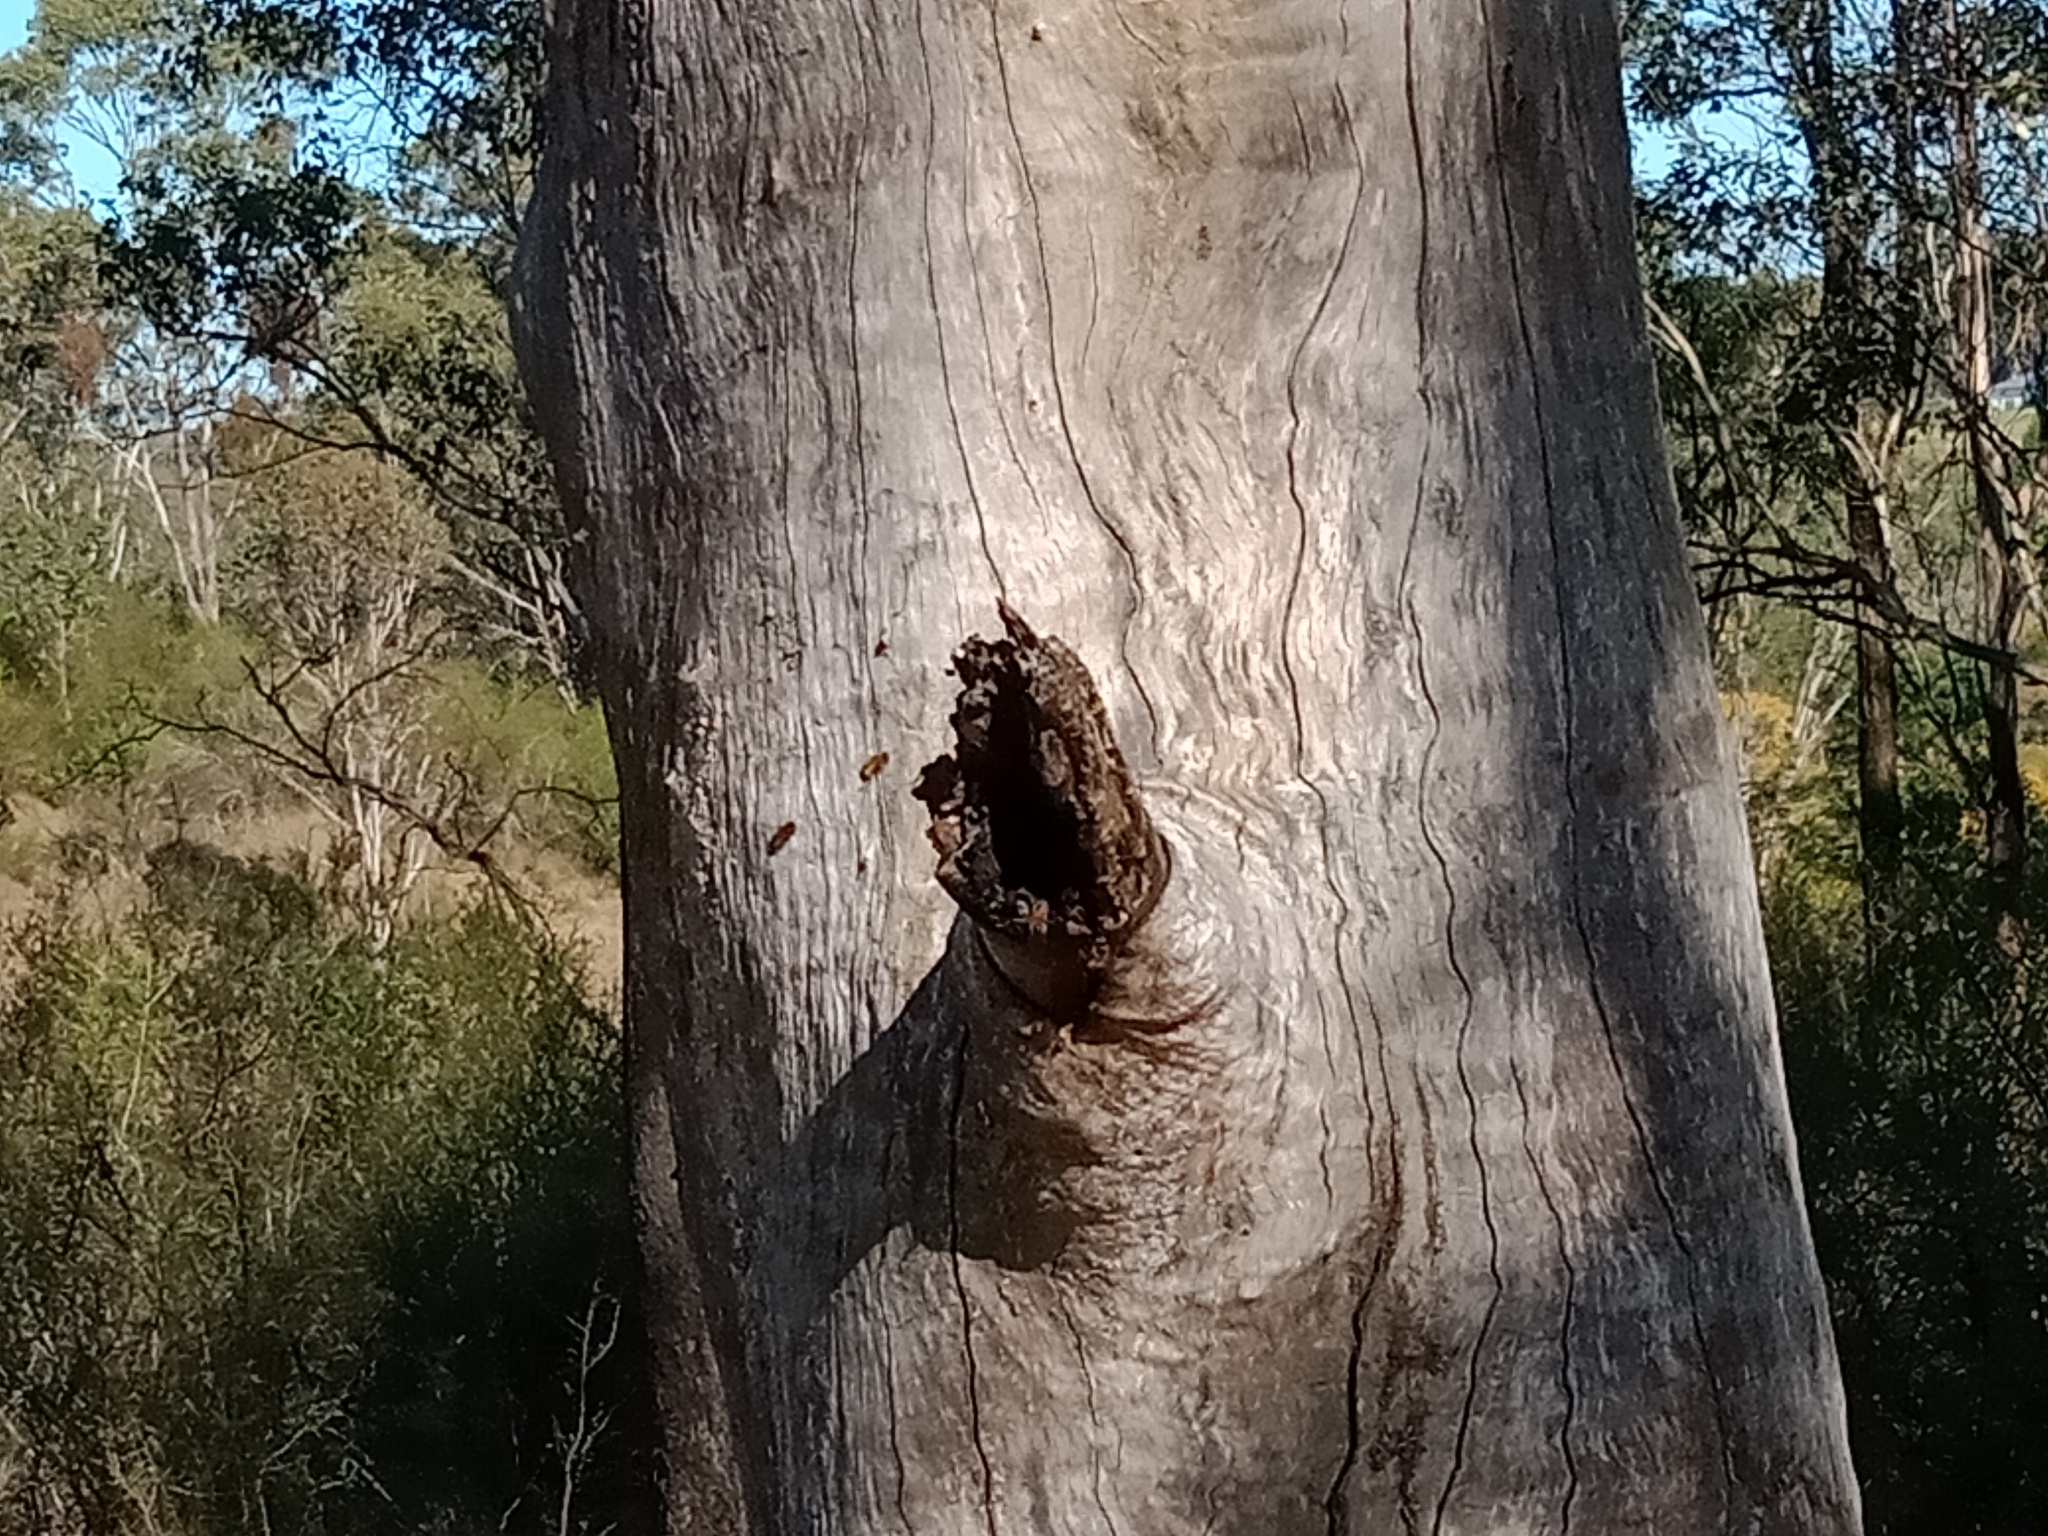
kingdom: Animalia
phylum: Arthropoda
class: Insecta
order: Hymenoptera
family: Apidae
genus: Apis
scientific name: Apis mellifera
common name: Honey bee
